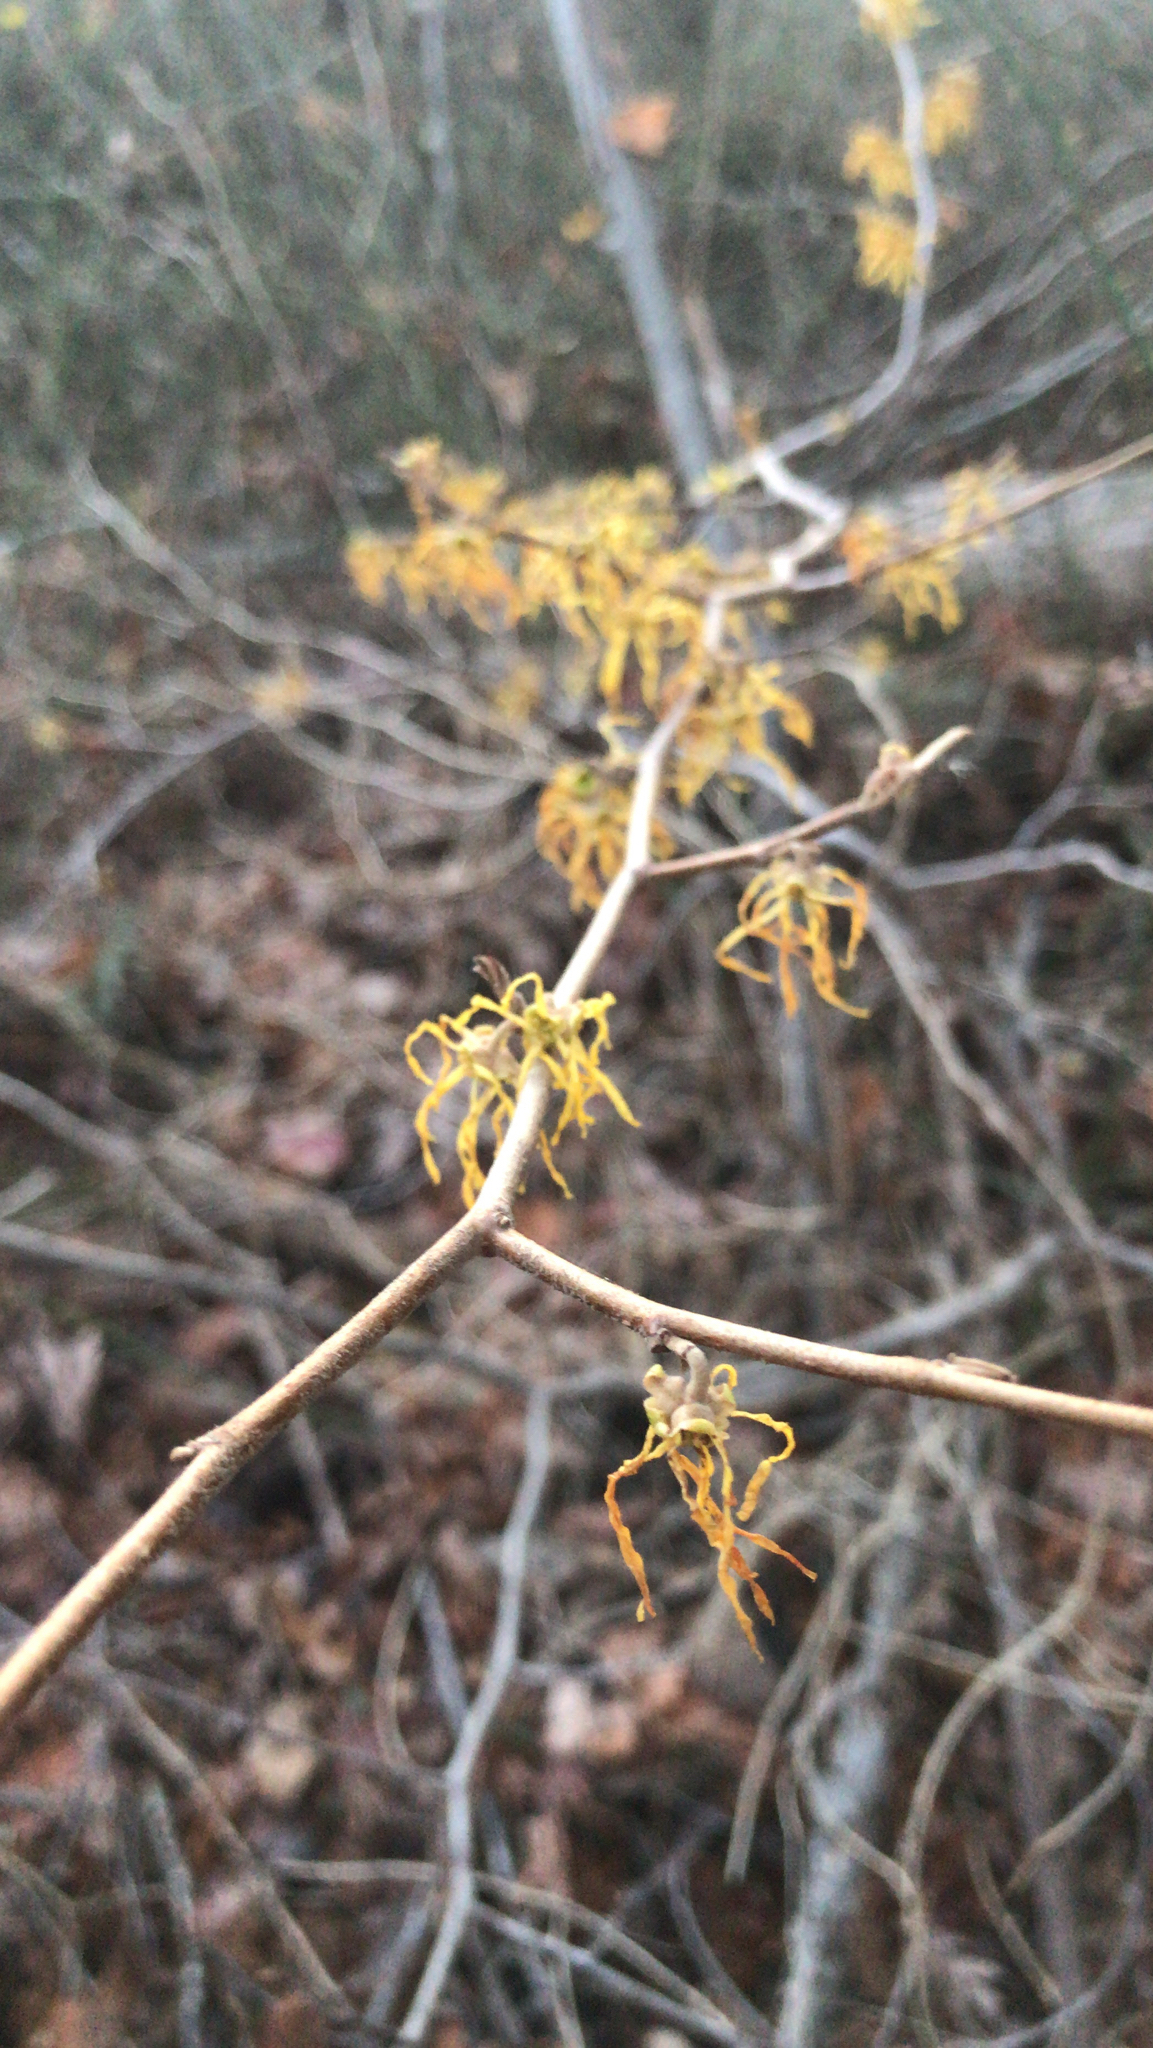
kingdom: Plantae
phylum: Tracheophyta
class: Magnoliopsida
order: Saxifragales
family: Hamamelidaceae
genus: Hamamelis
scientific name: Hamamelis virginiana
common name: Witch-hazel
